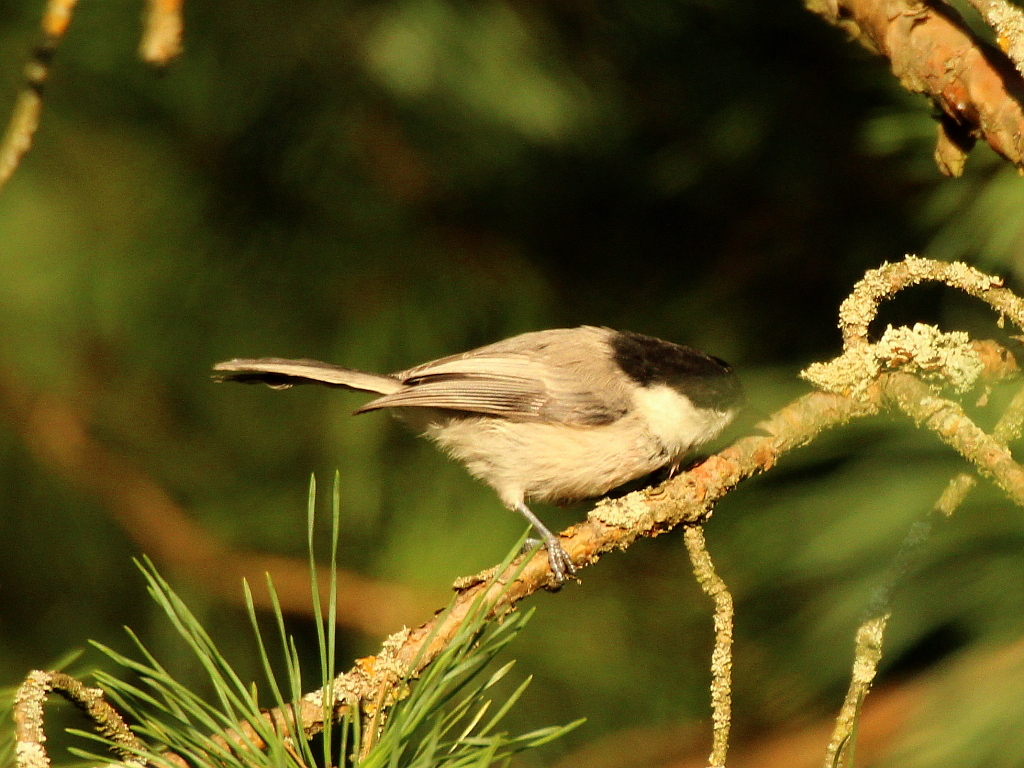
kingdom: Animalia
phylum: Chordata
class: Aves
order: Passeriformes
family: Paridae
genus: Poecile
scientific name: Poecile montanus
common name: Willow tit
